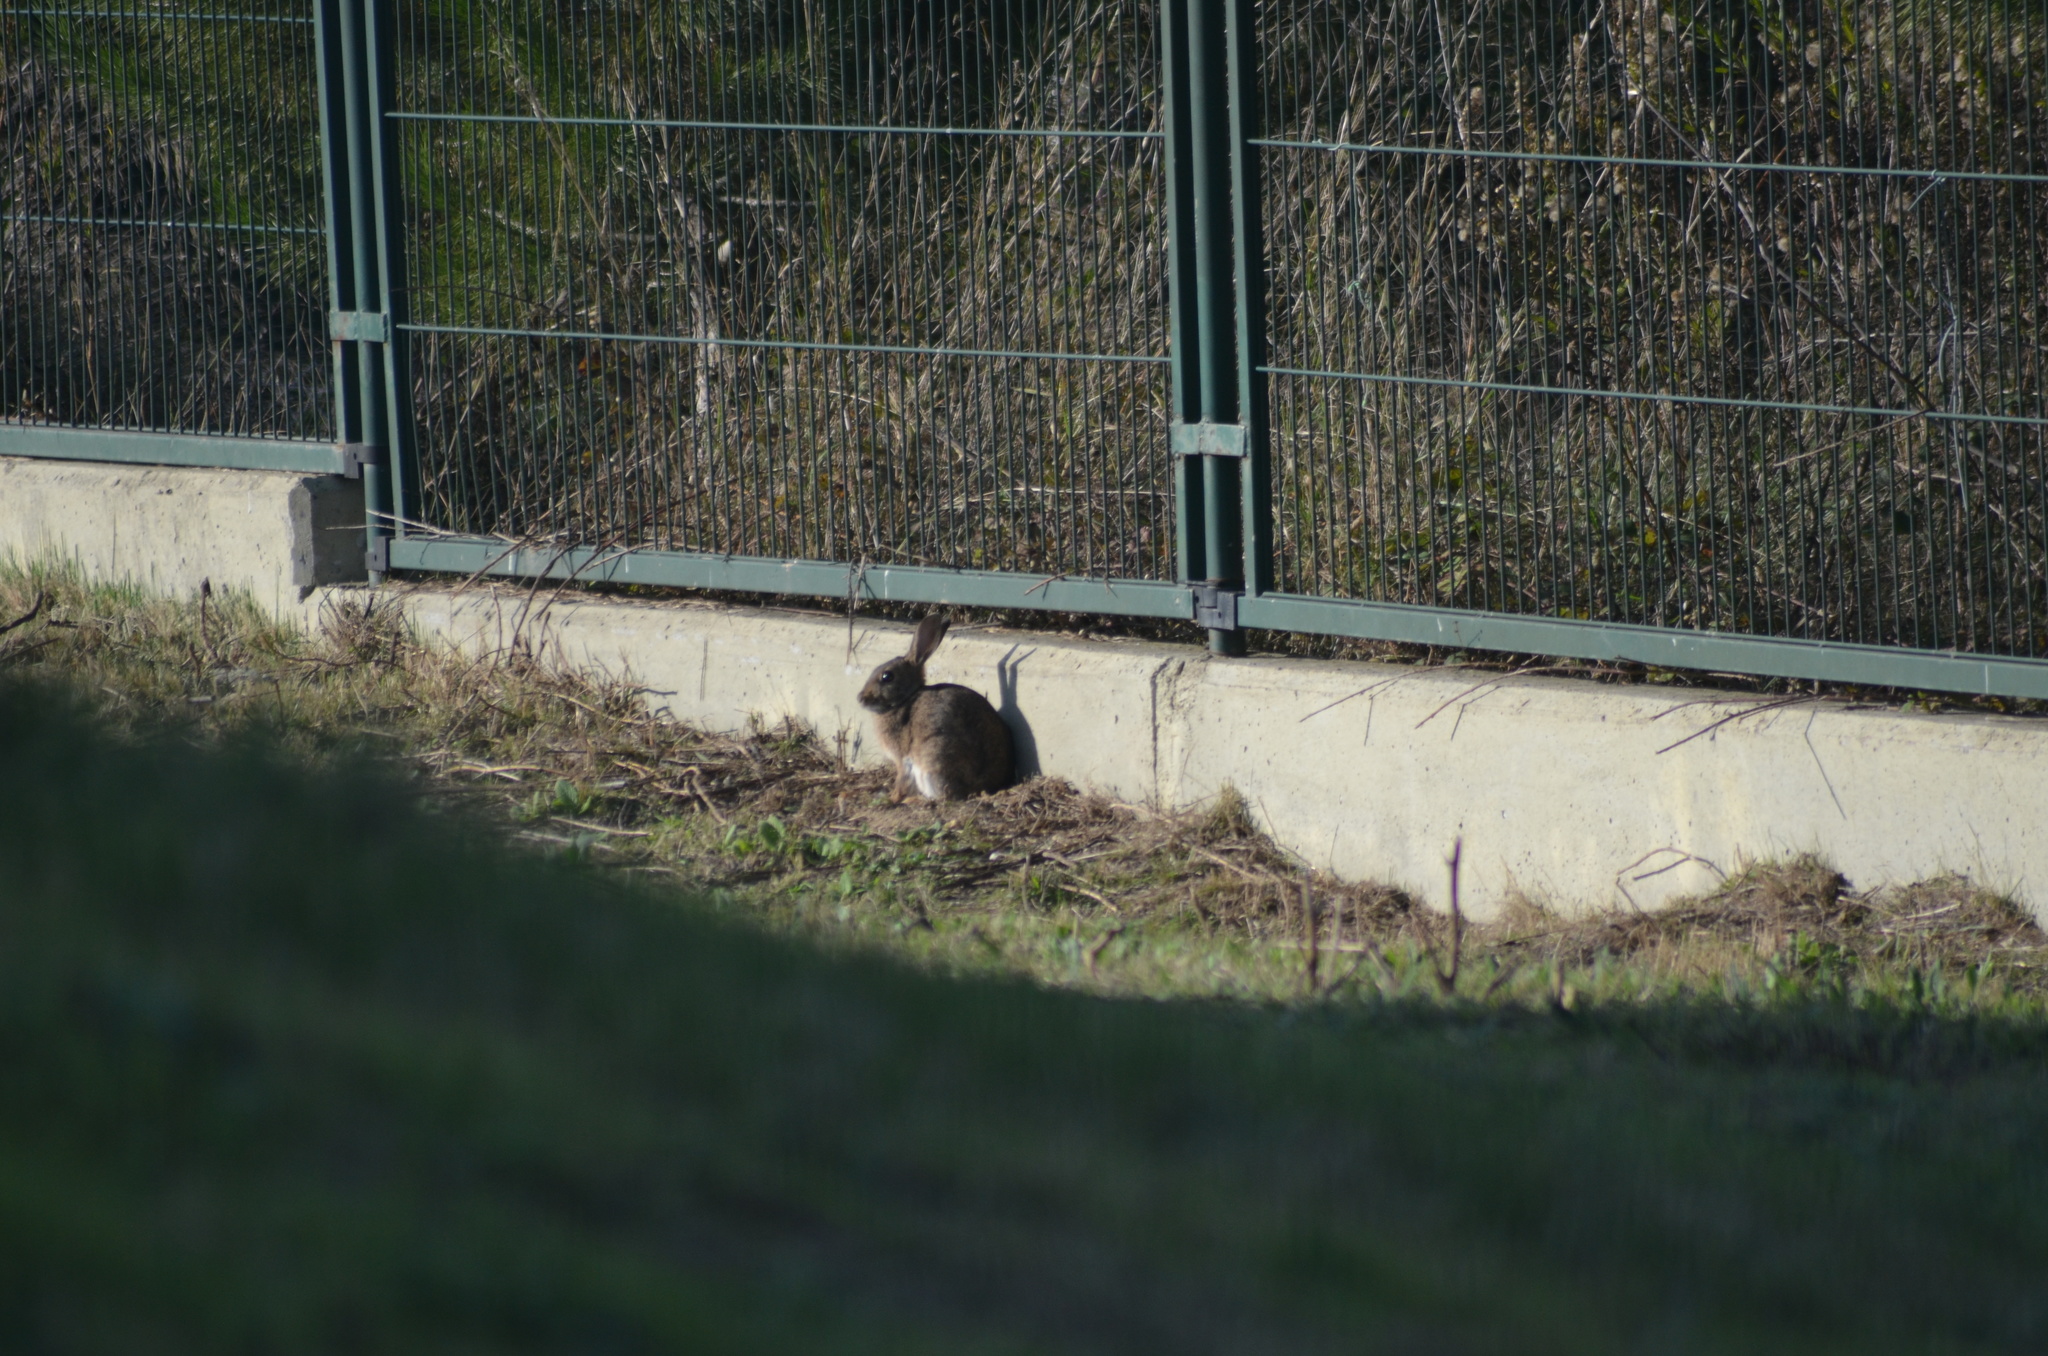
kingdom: Animalia
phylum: Chordata
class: Mammalia
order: Lagomorpha
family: Leporidae
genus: Oryctolagus
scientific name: Oryctolagus cuniculus
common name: European rabbit
